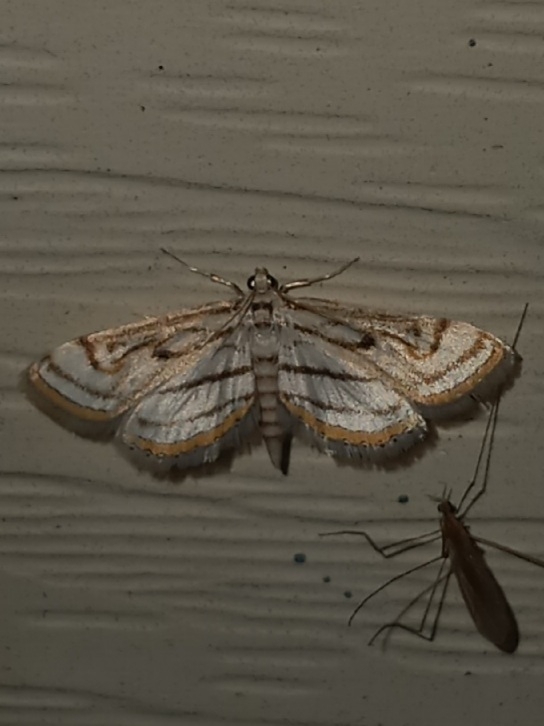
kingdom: Animalia
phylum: Arthropoda
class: Insecta
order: Lepidoptera
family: Crambidae
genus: Parapoynx
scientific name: Parapoynx badiusalis
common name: Chestnut-marked pondweed moth
